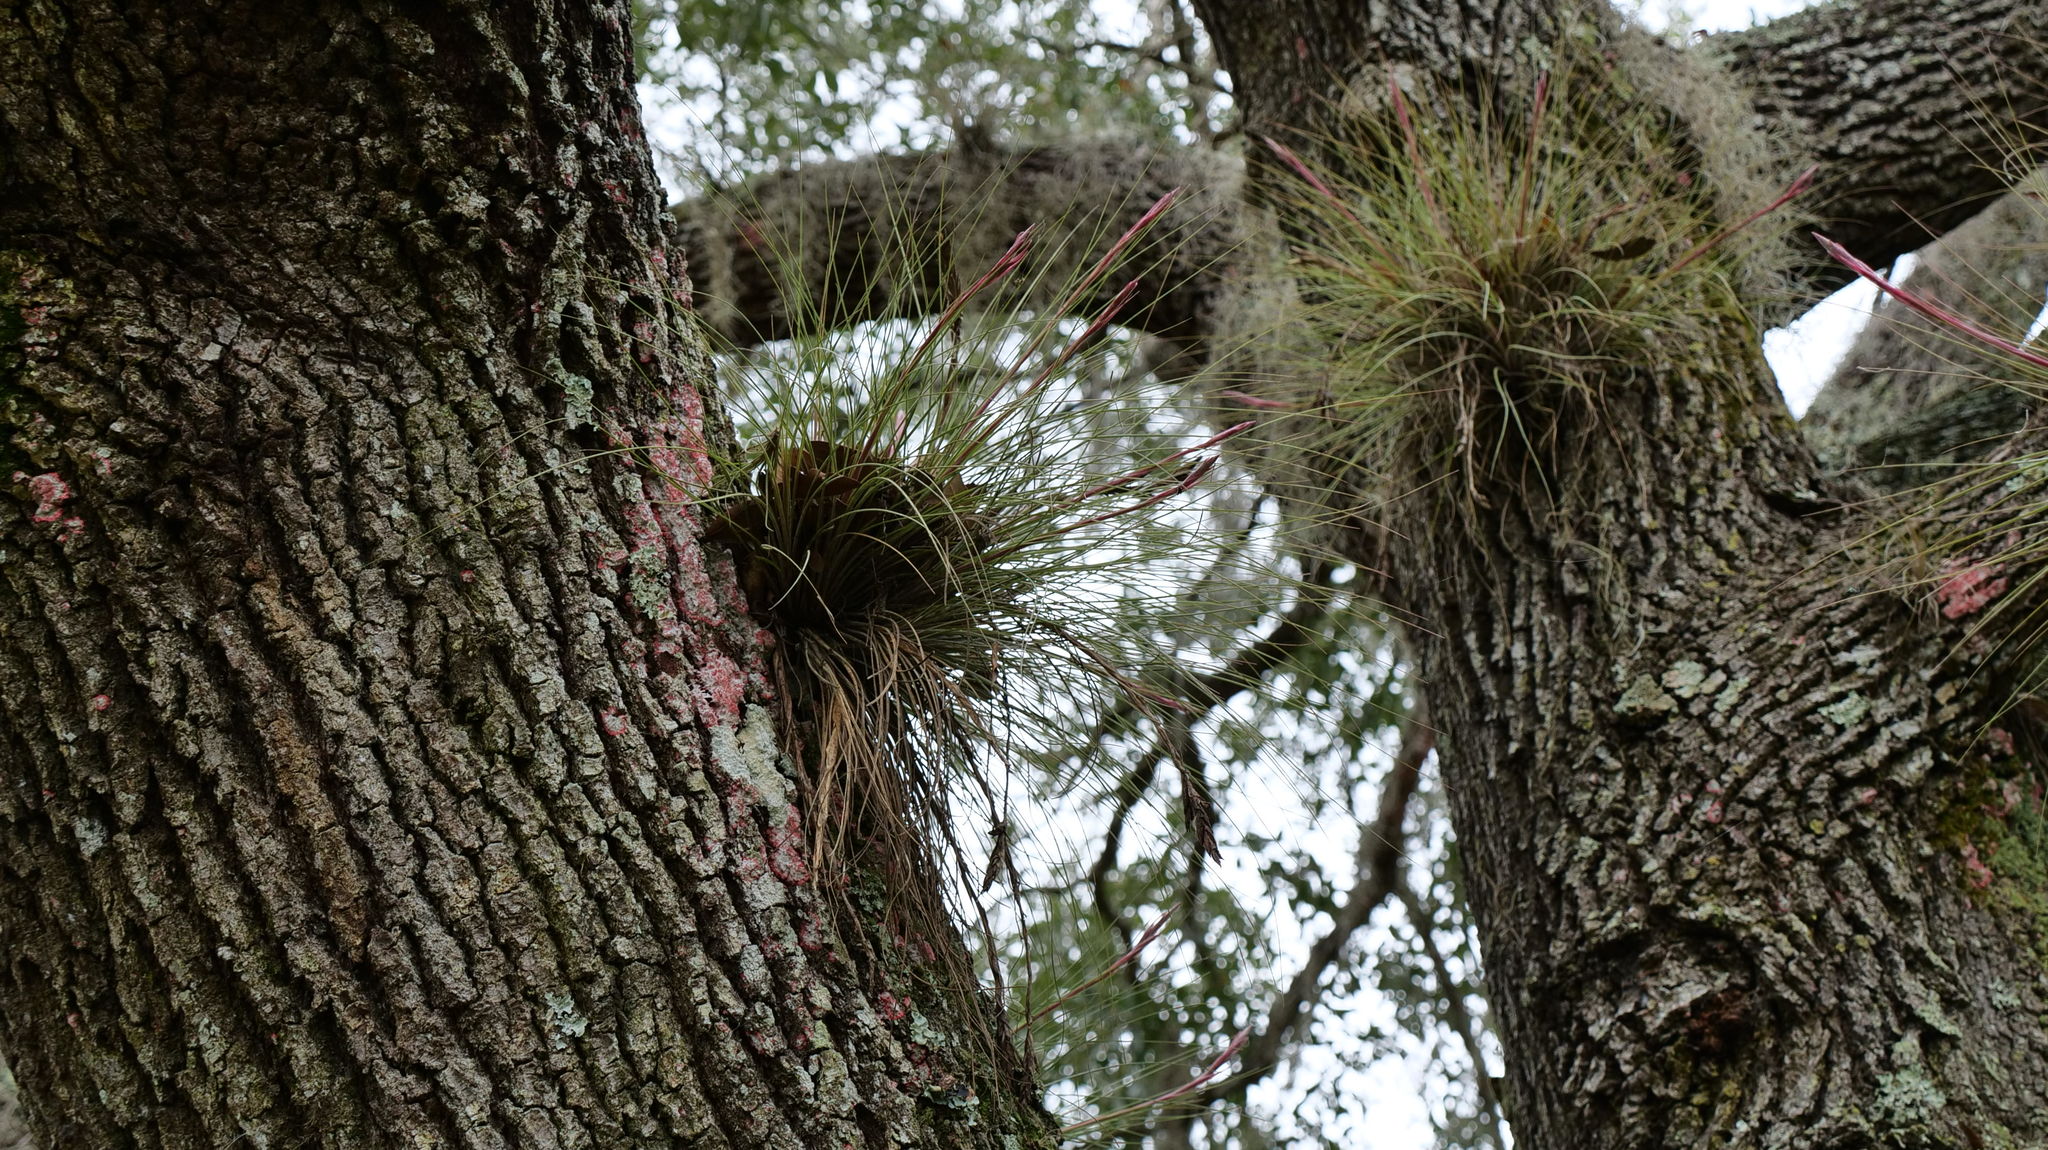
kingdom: Plantae
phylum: Tracheophyta
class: Liliopsida
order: Poales
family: Bromeliaceae
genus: Tillandsia
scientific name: Tillandsia bartramii
